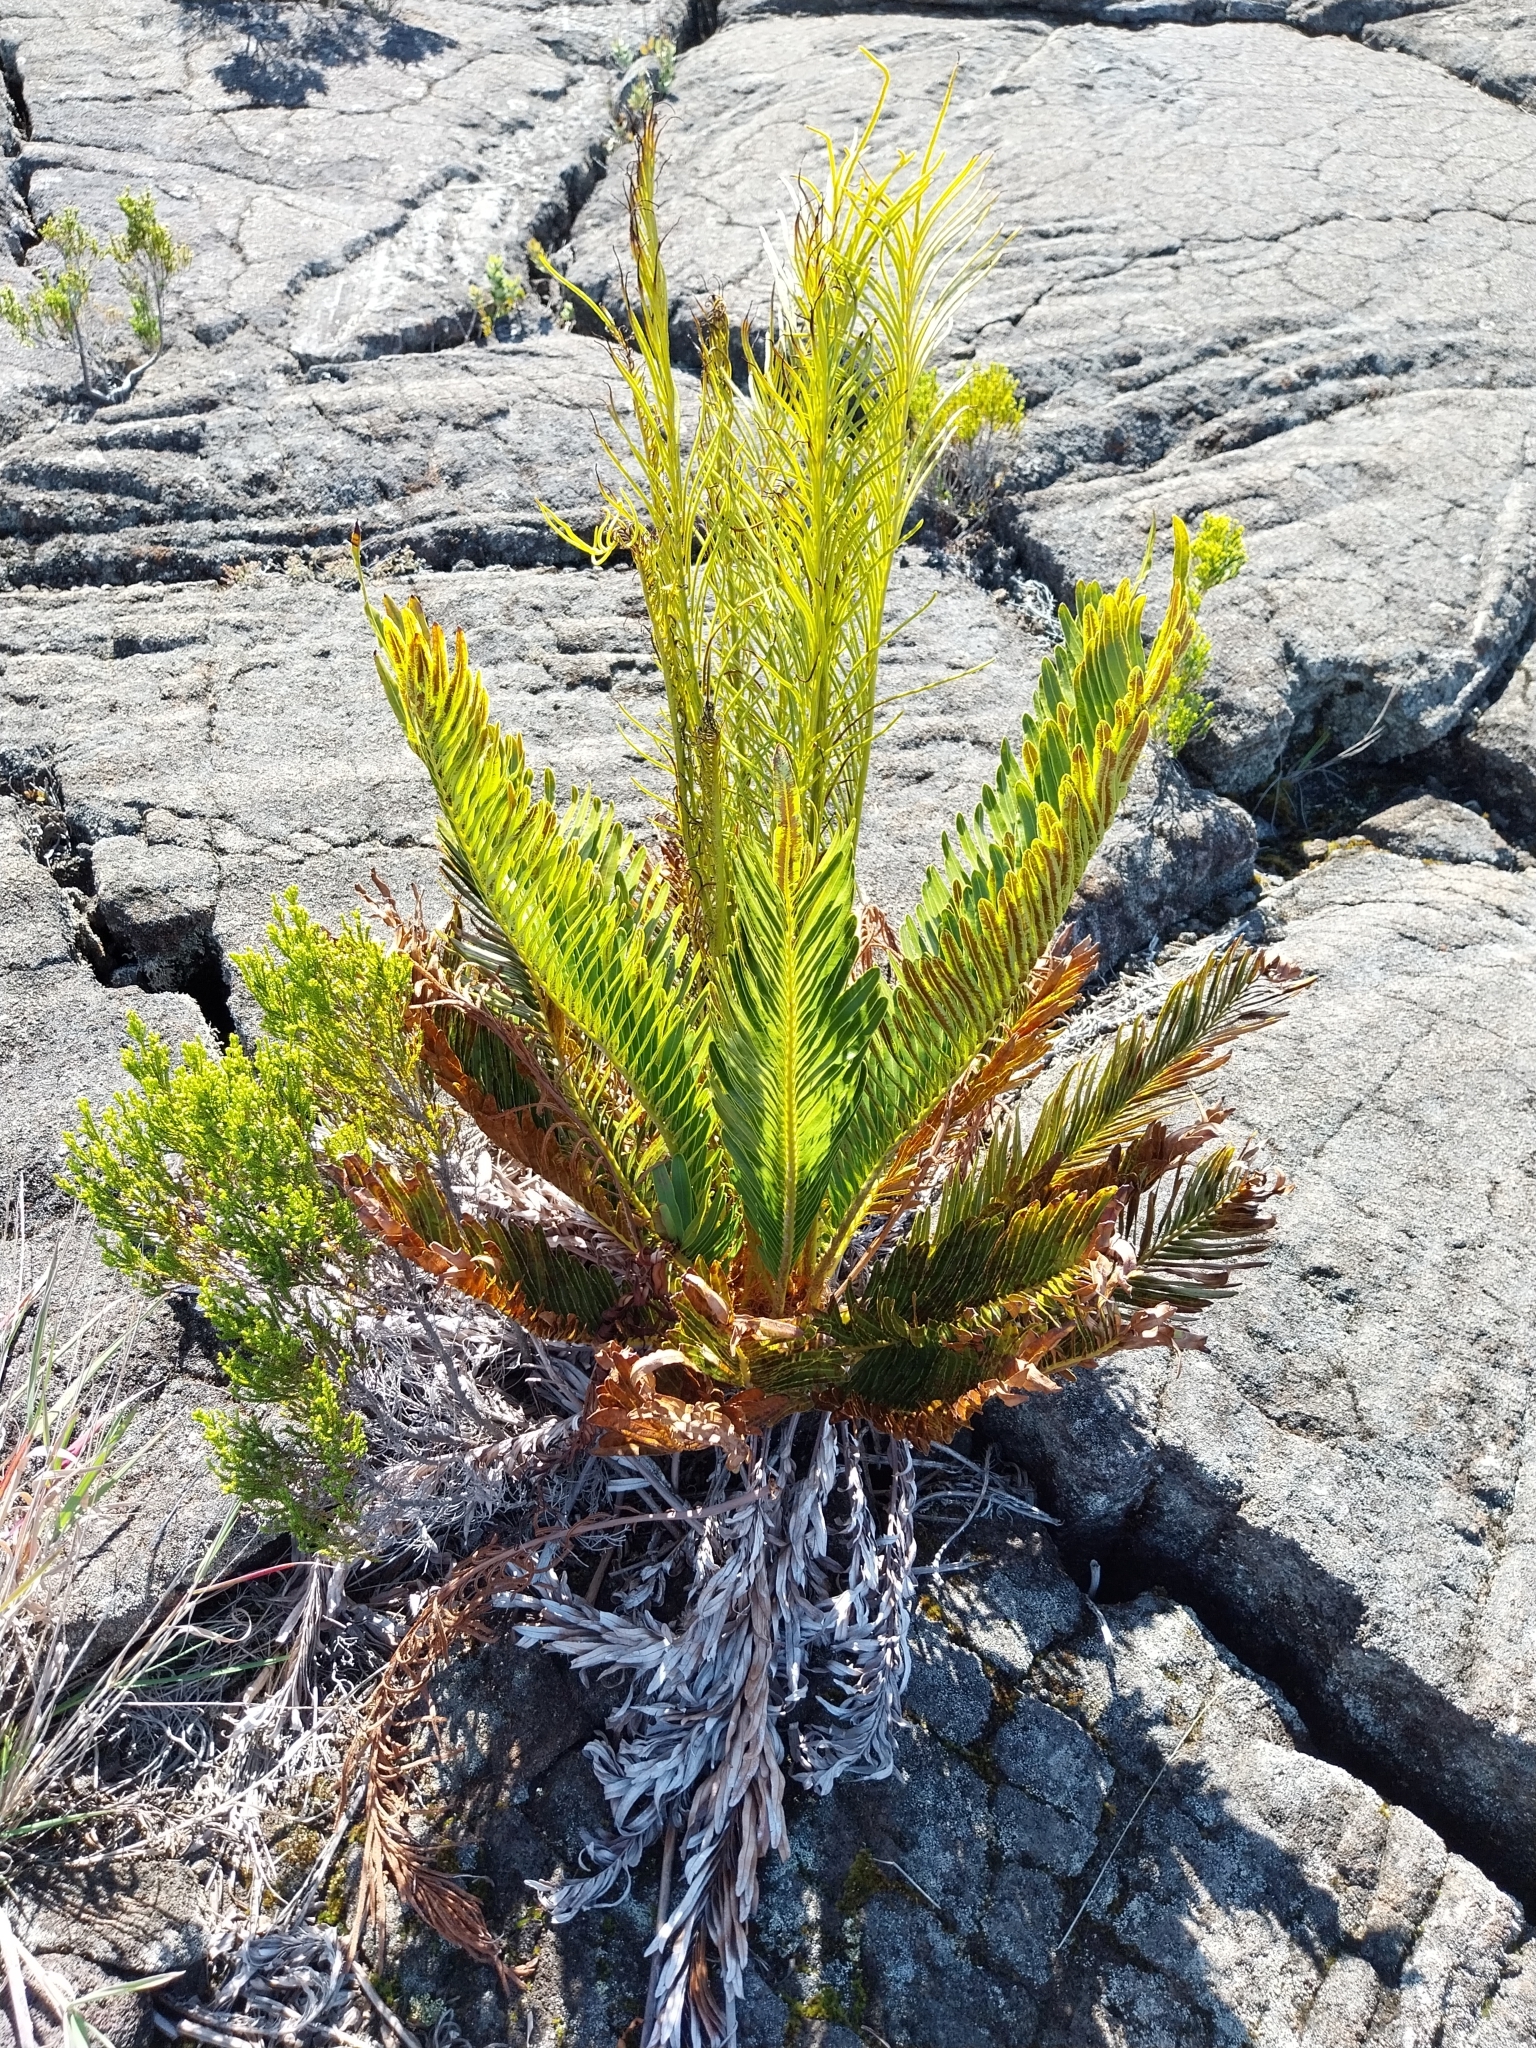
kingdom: Plantae
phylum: Tracheophyta
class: Polypodiopsida
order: Polypodiales
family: Blechnaceae
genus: Lomariocycas
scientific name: Lomariocycas tabularis
